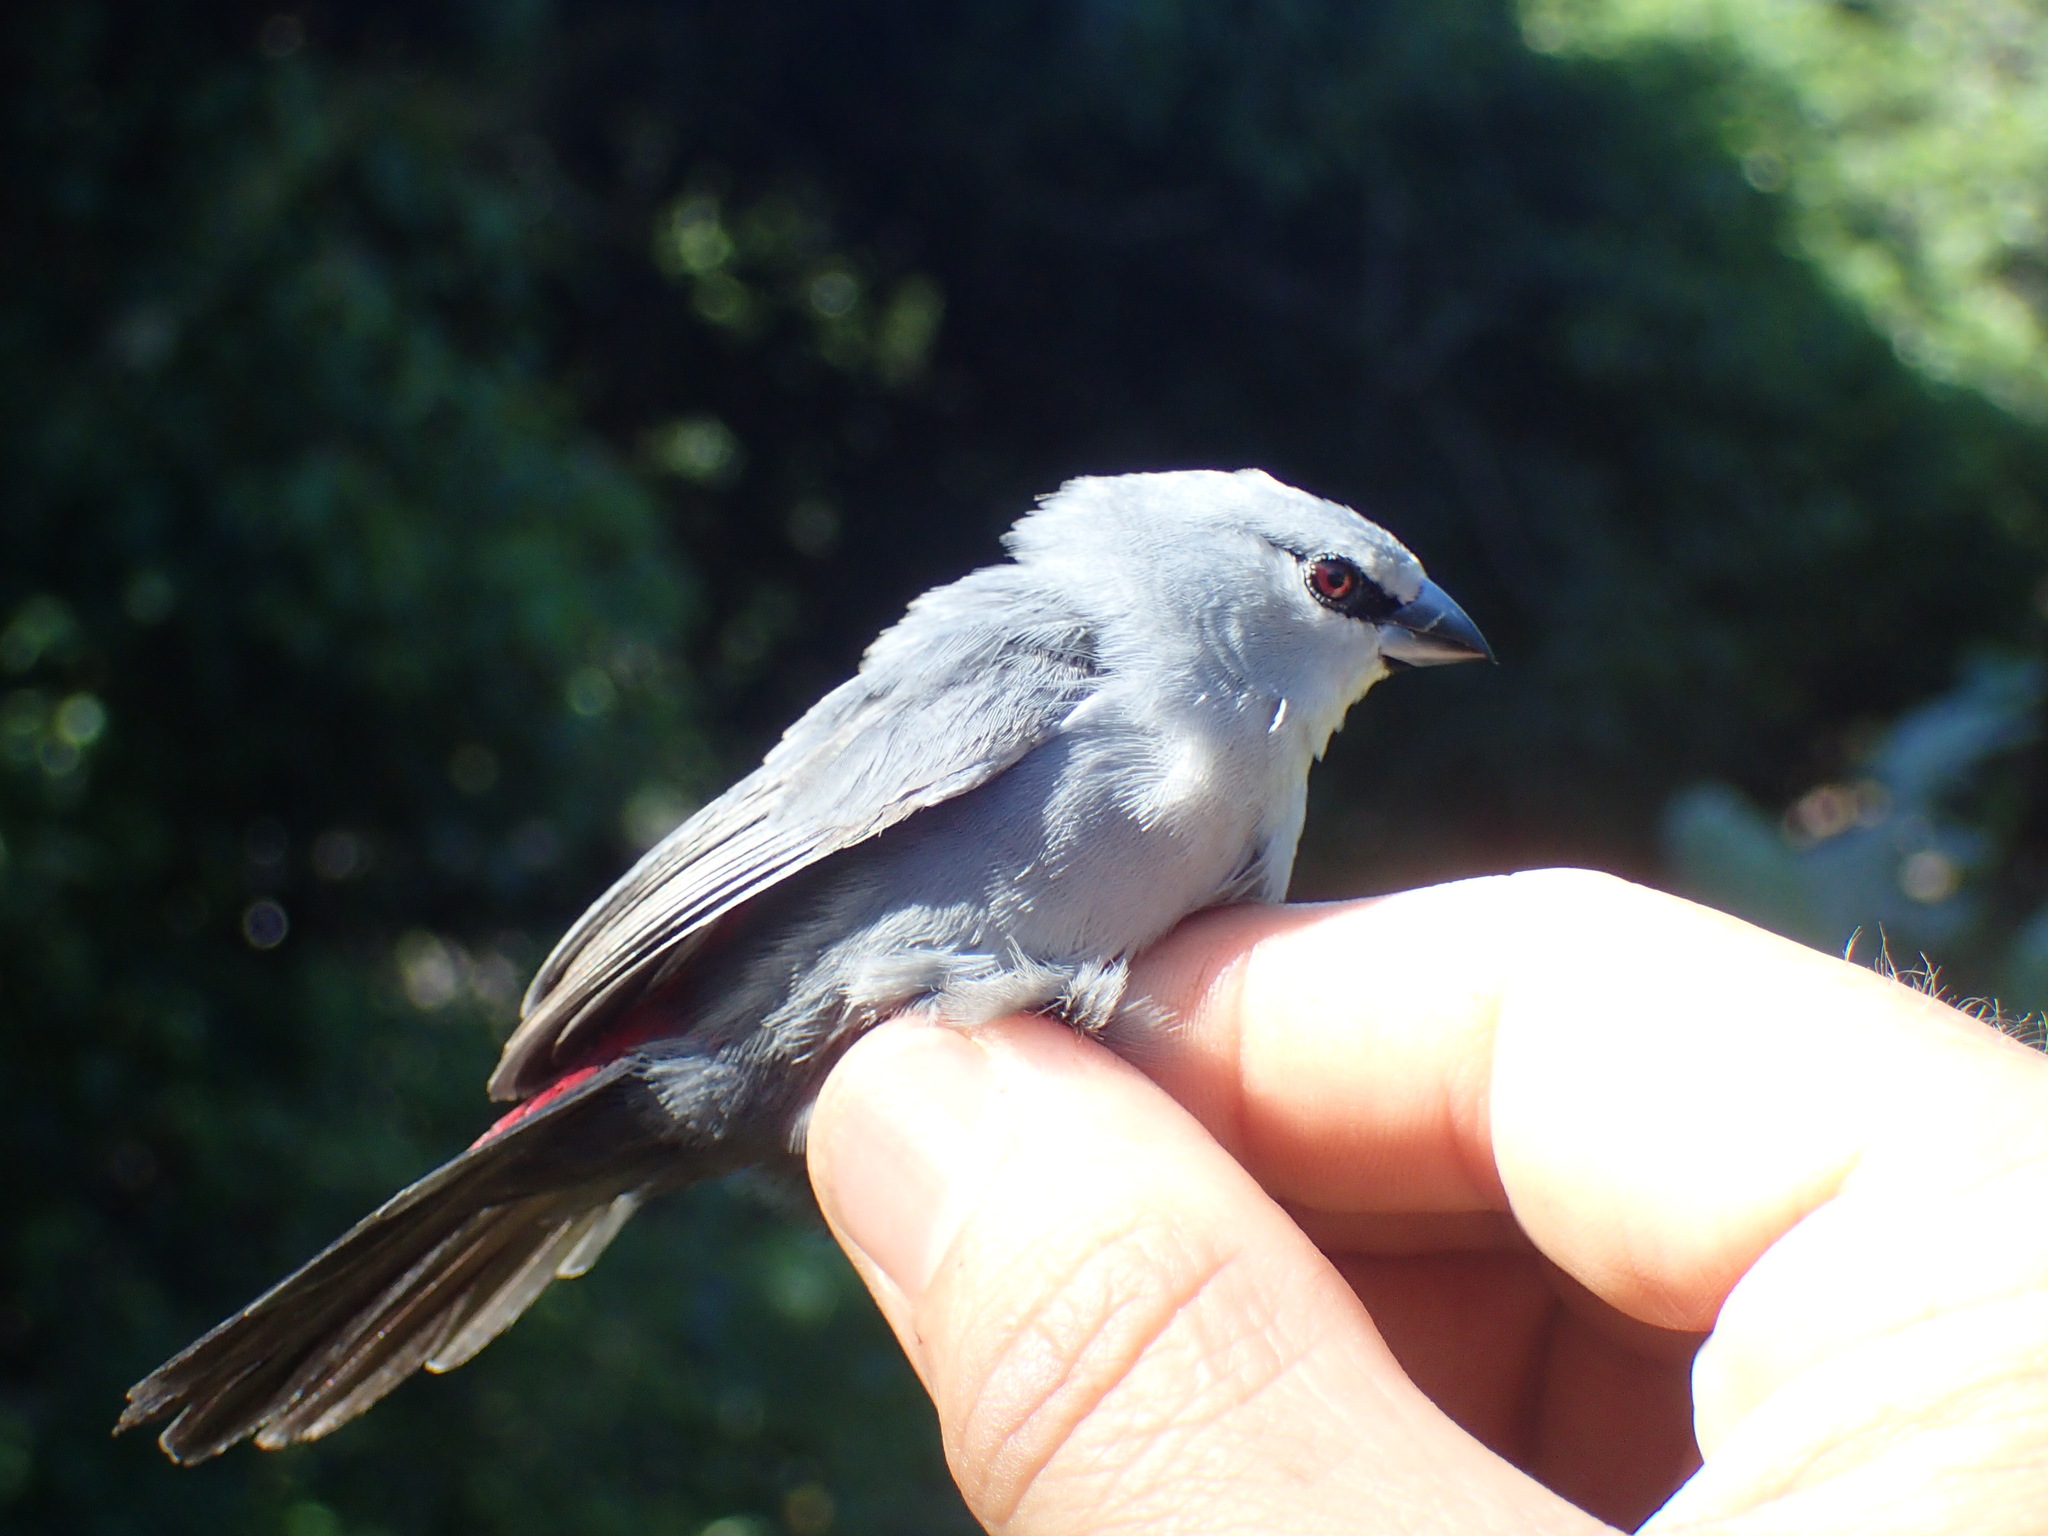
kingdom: Animalia
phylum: Chordata
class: Aves
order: Passeriformes
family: Estrildidae
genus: Estrilda
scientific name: Estrilda perreini
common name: Grey waxbill
